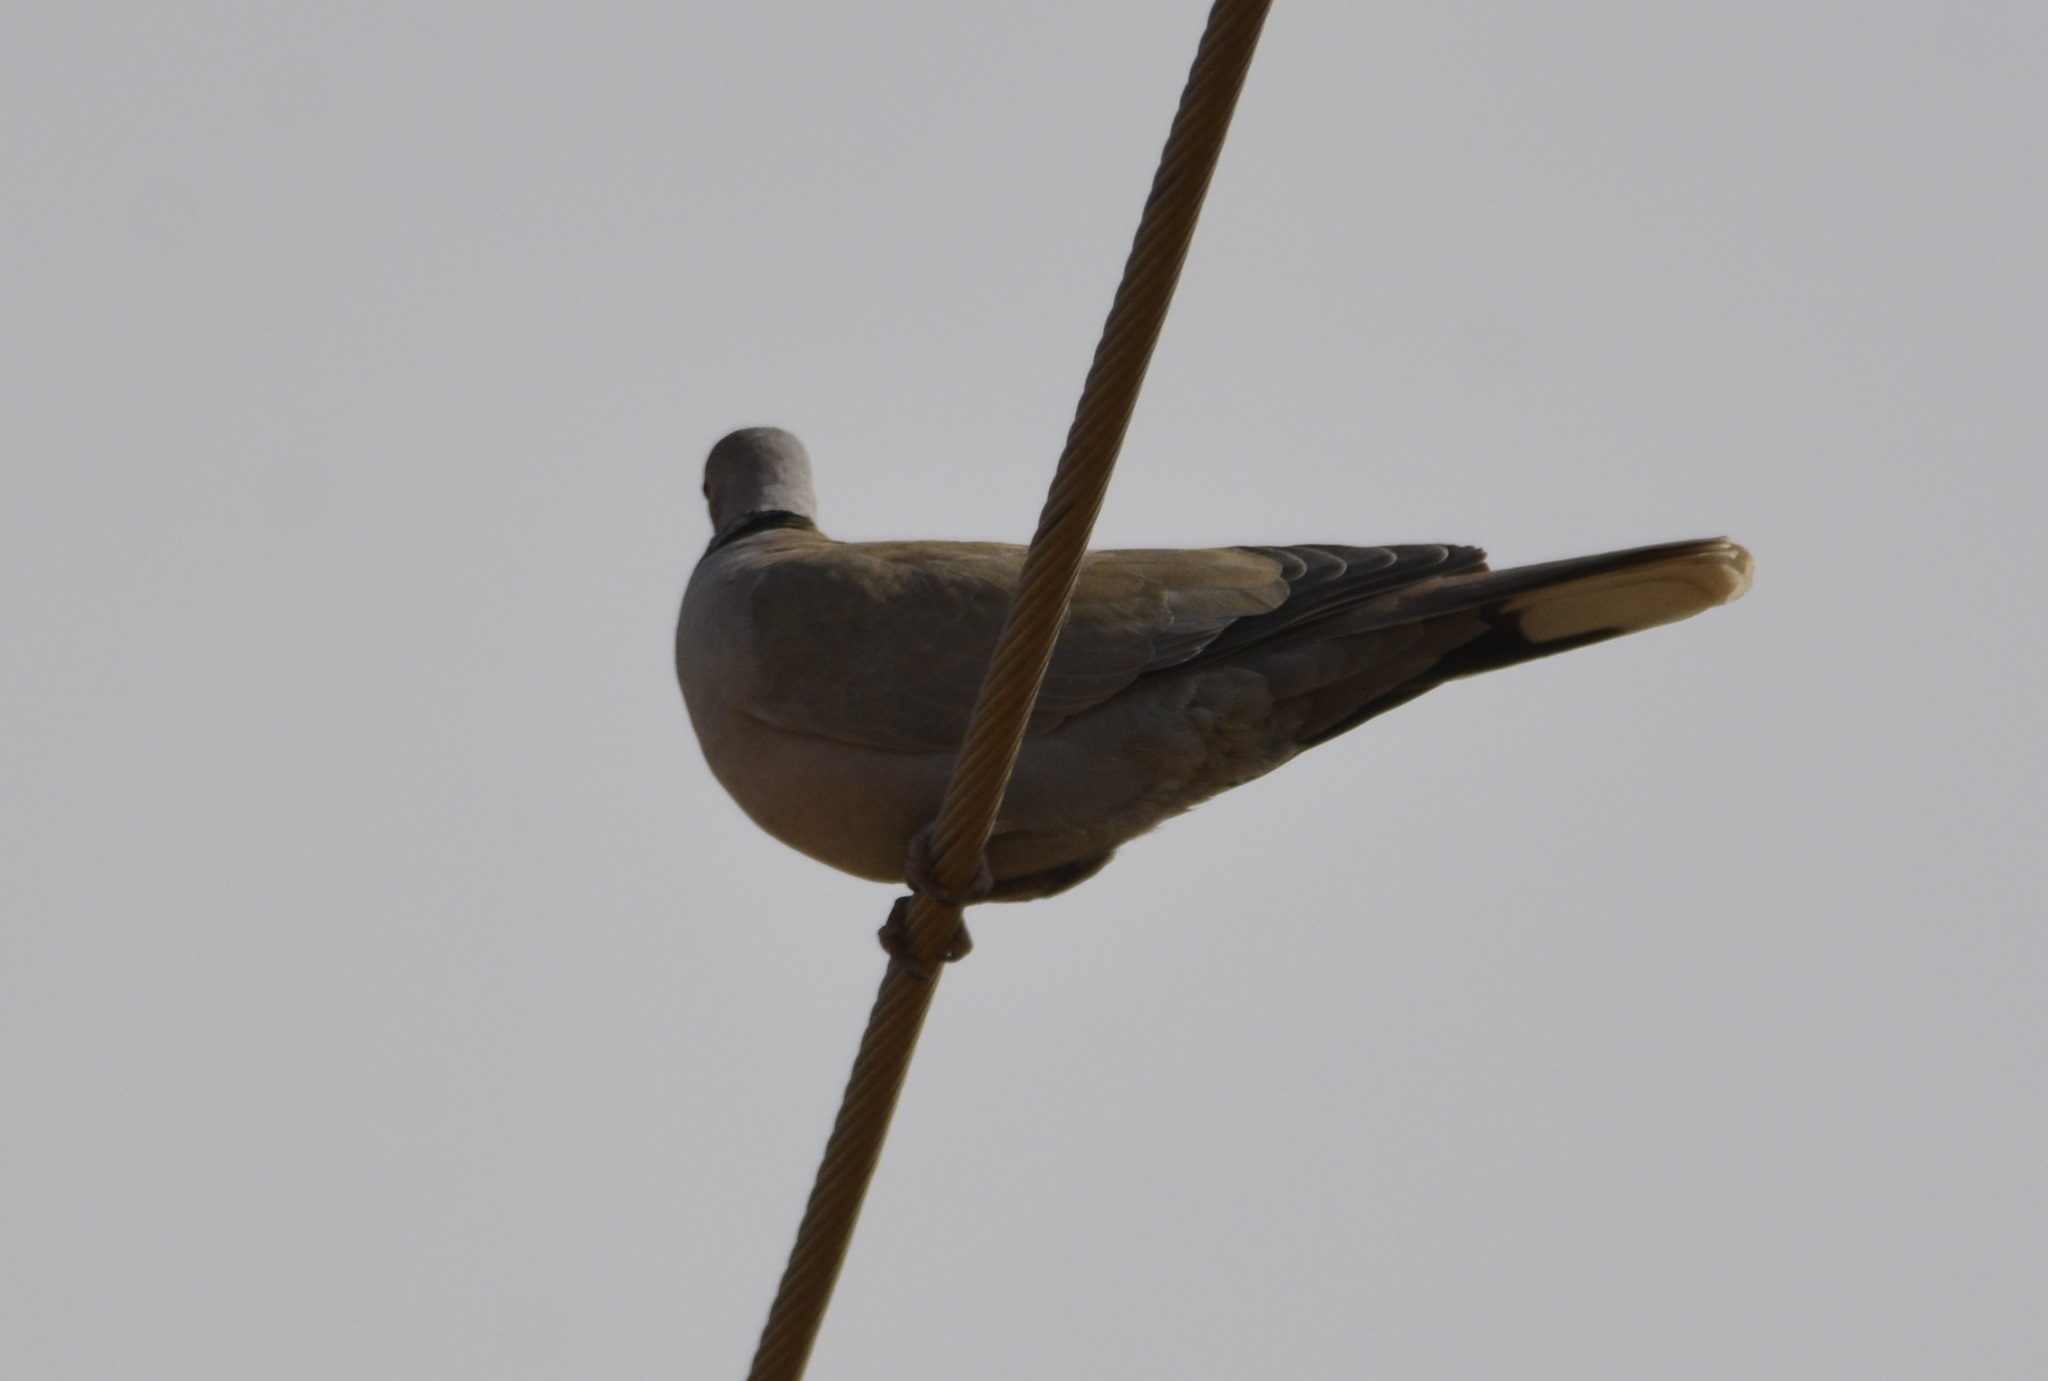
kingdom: Animalia
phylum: Chordata
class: Aves
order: Columbiformes
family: Columbidae
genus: Streptopelia
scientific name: Streptopelia decaocto
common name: Eurasian collared dove
